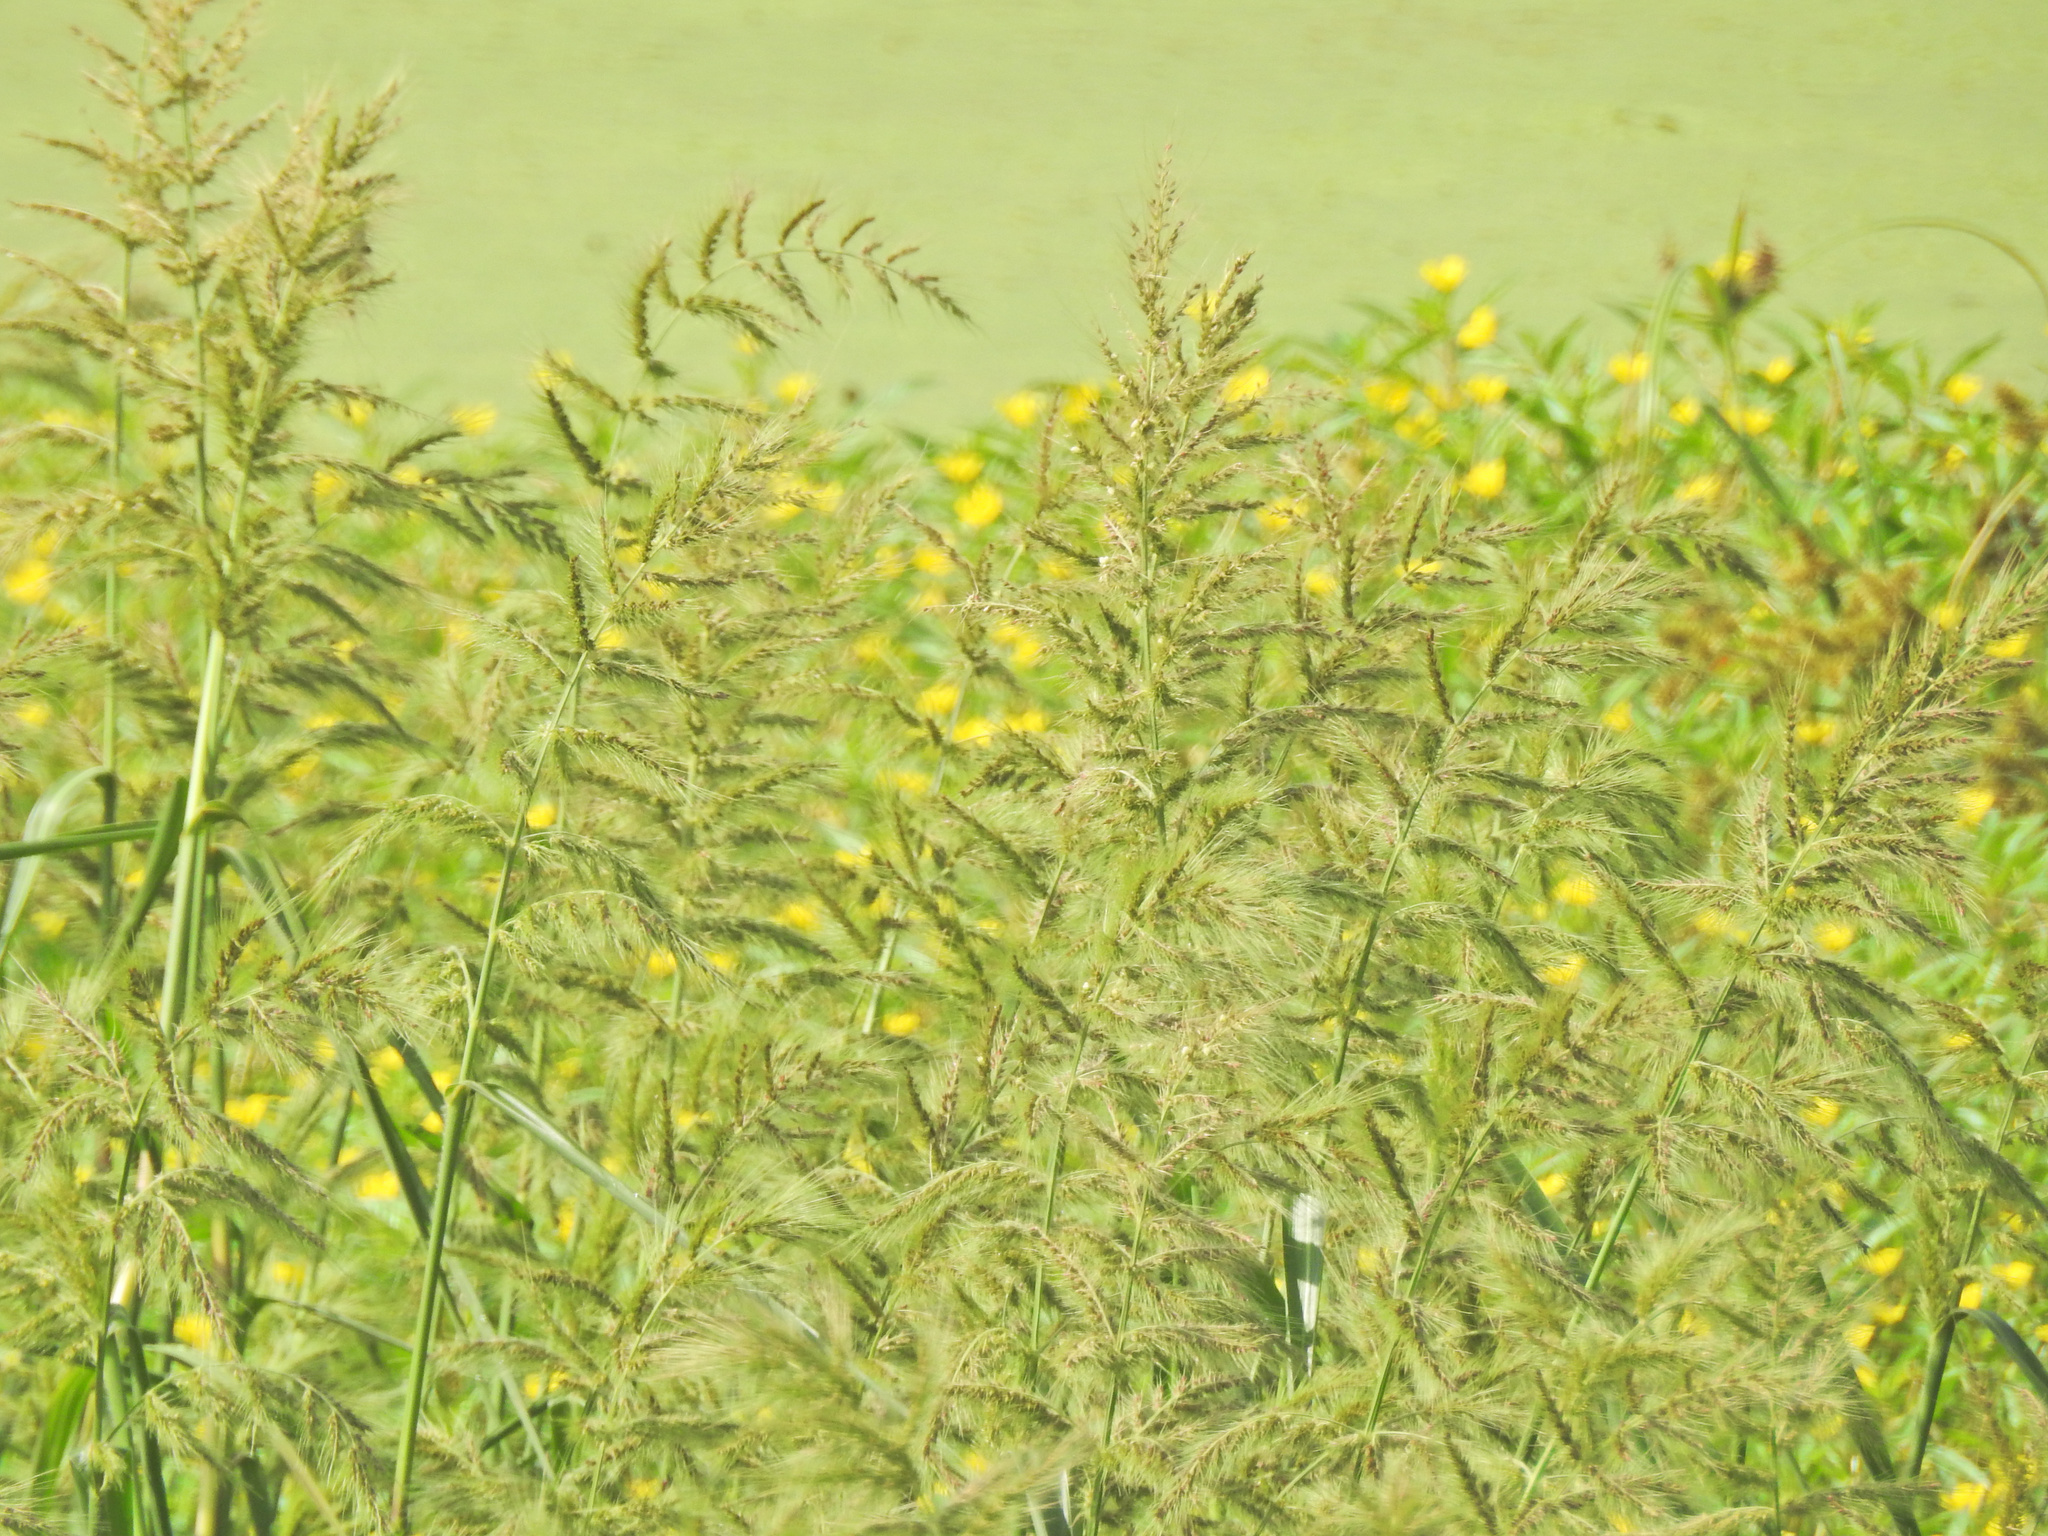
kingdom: Plantae
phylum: Tracheophyta
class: Liliopsida
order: Poales
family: Poaceae
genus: Echinochloa
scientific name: Echinochloa walteri
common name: Coast barnyard grass
